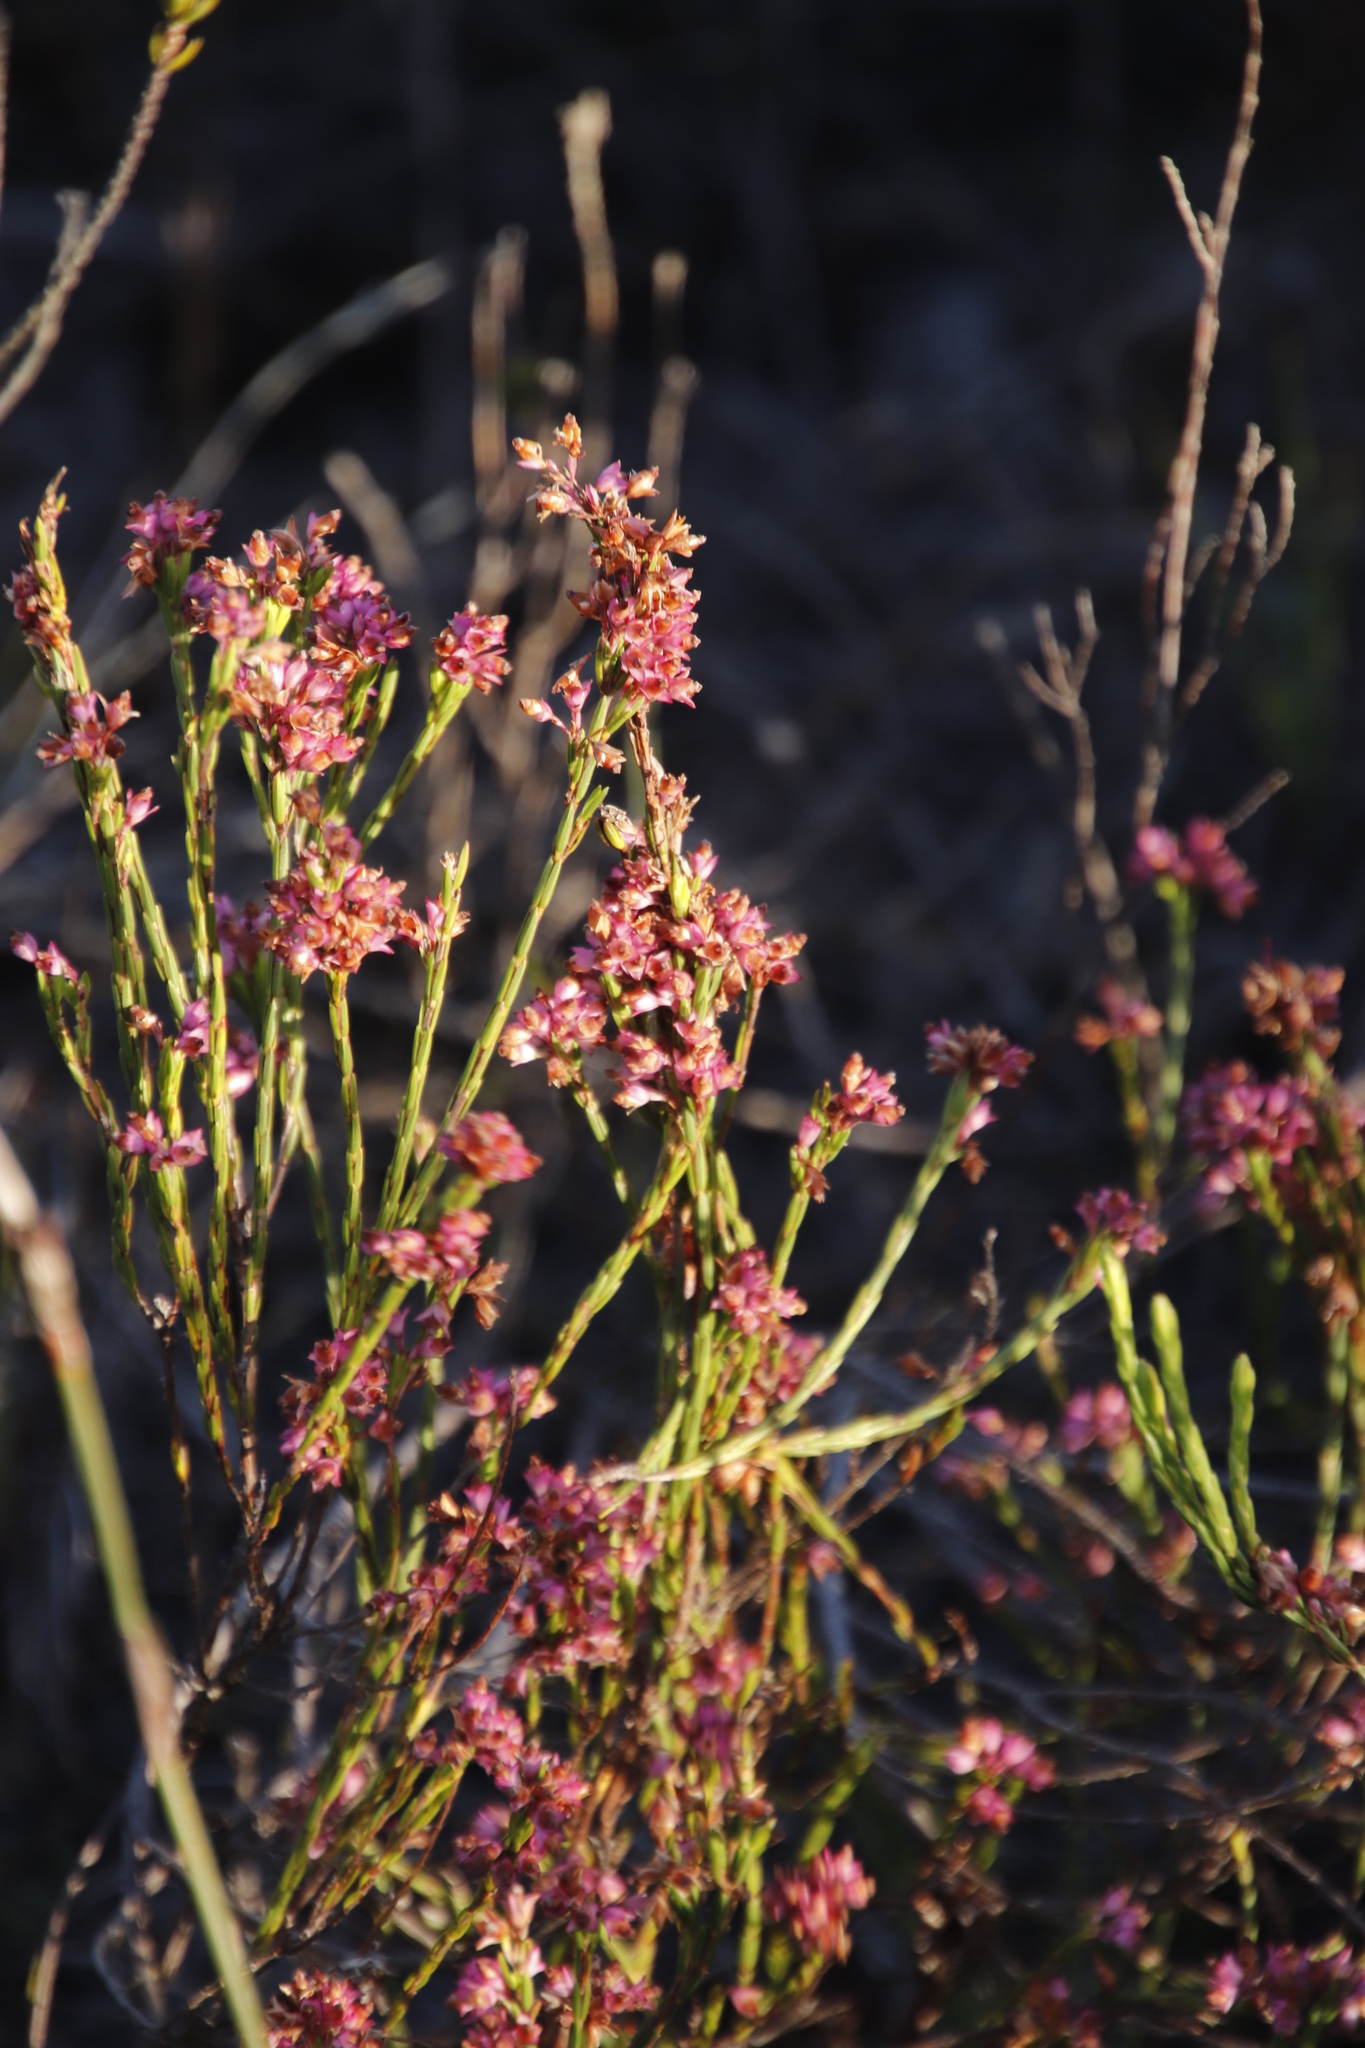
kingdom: Plantae
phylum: Tracheophyta
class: Magnoliopsida
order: Ericales
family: Ericaceae
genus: Erica
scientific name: Erica corifolia
